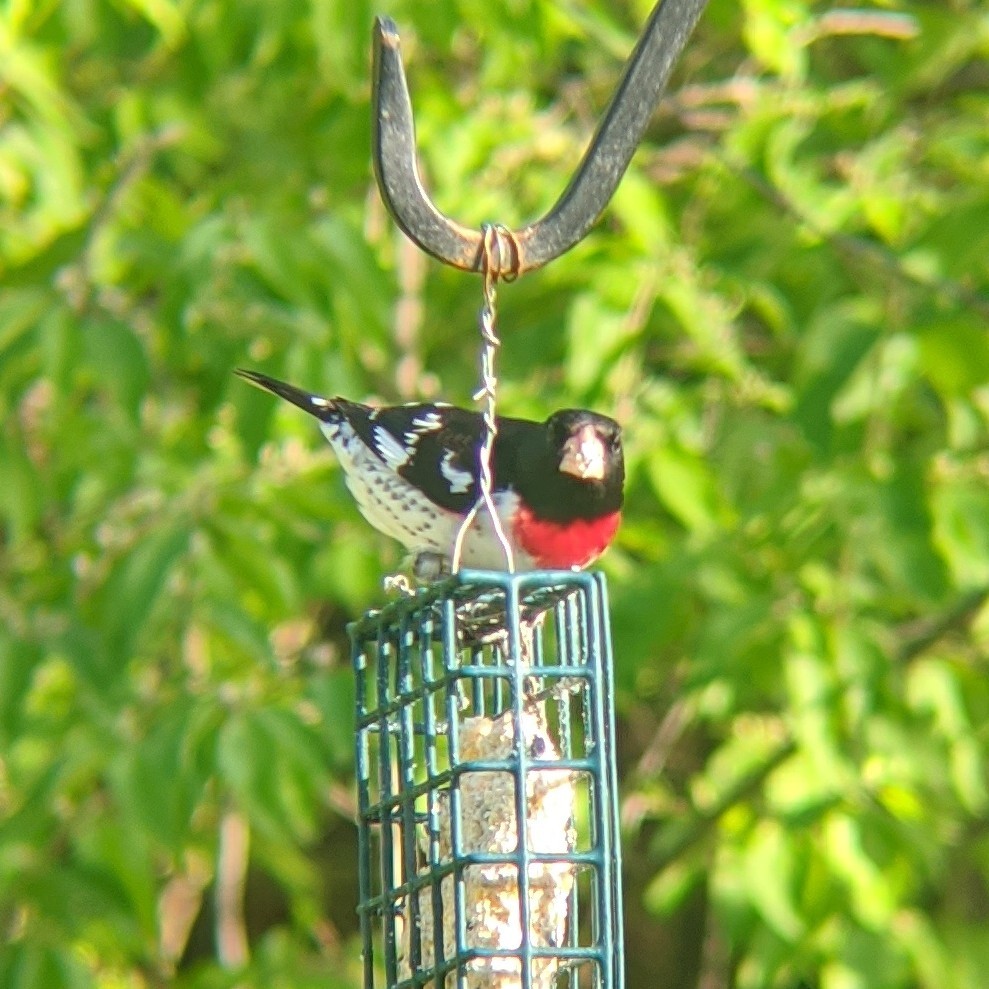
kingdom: Animalia
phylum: Chordata
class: Aves
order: Passeriformes
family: Cardinalidae
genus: Pheucticus
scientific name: Pheucticus ludovicianus
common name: Rose-breasted grosbeak
